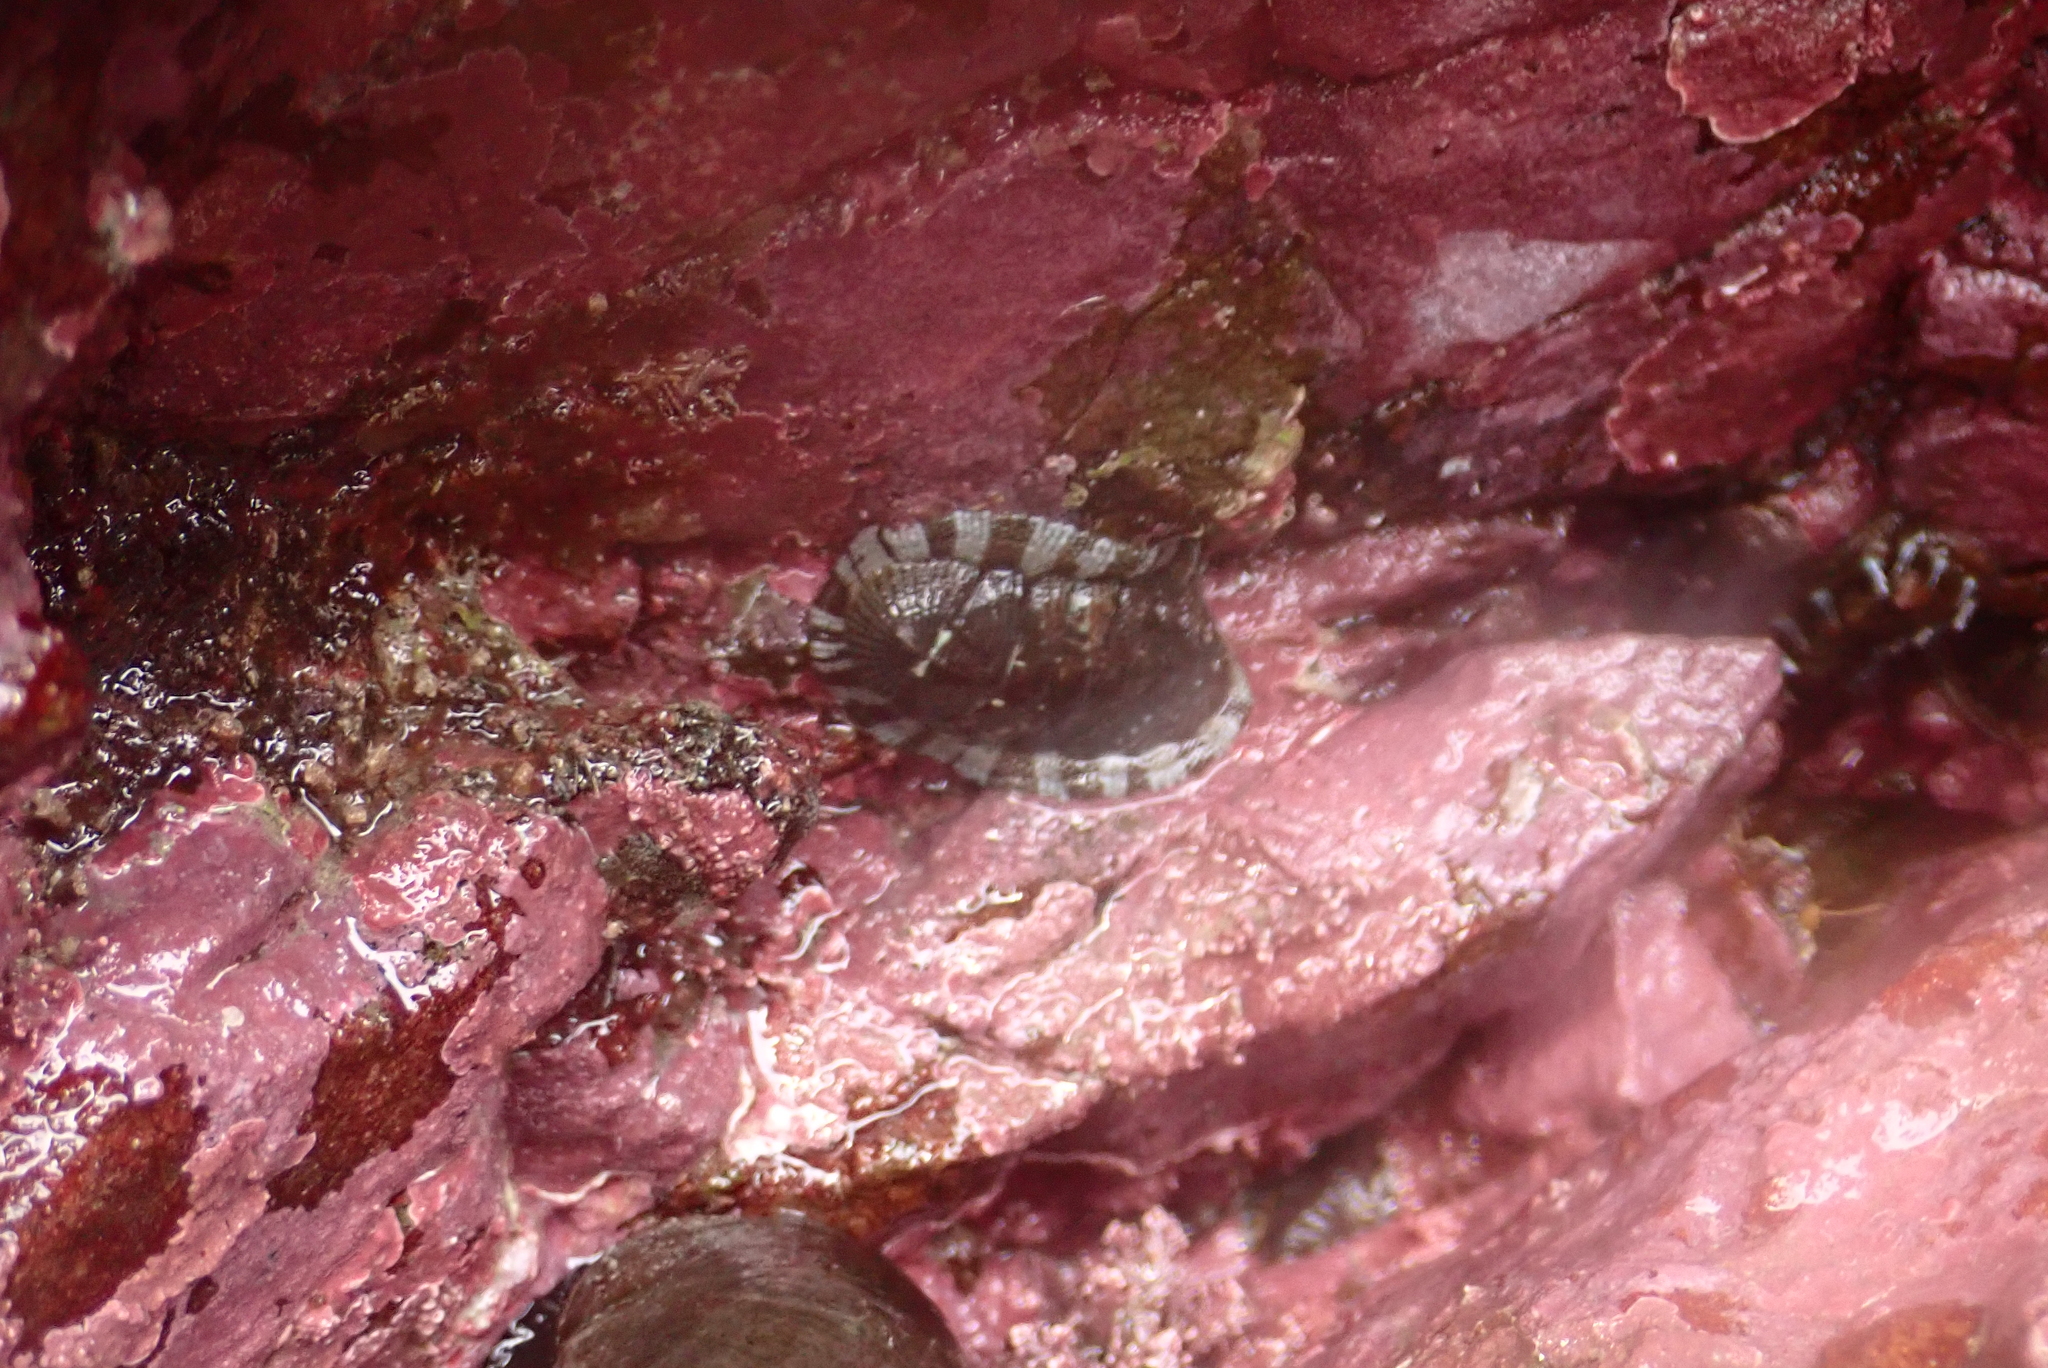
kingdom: Animalia
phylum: Mollusca
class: Polyplacophora
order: Chitonida
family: Chitonidae
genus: Sypharochiton
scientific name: Sypharochiton pelliserpentis
